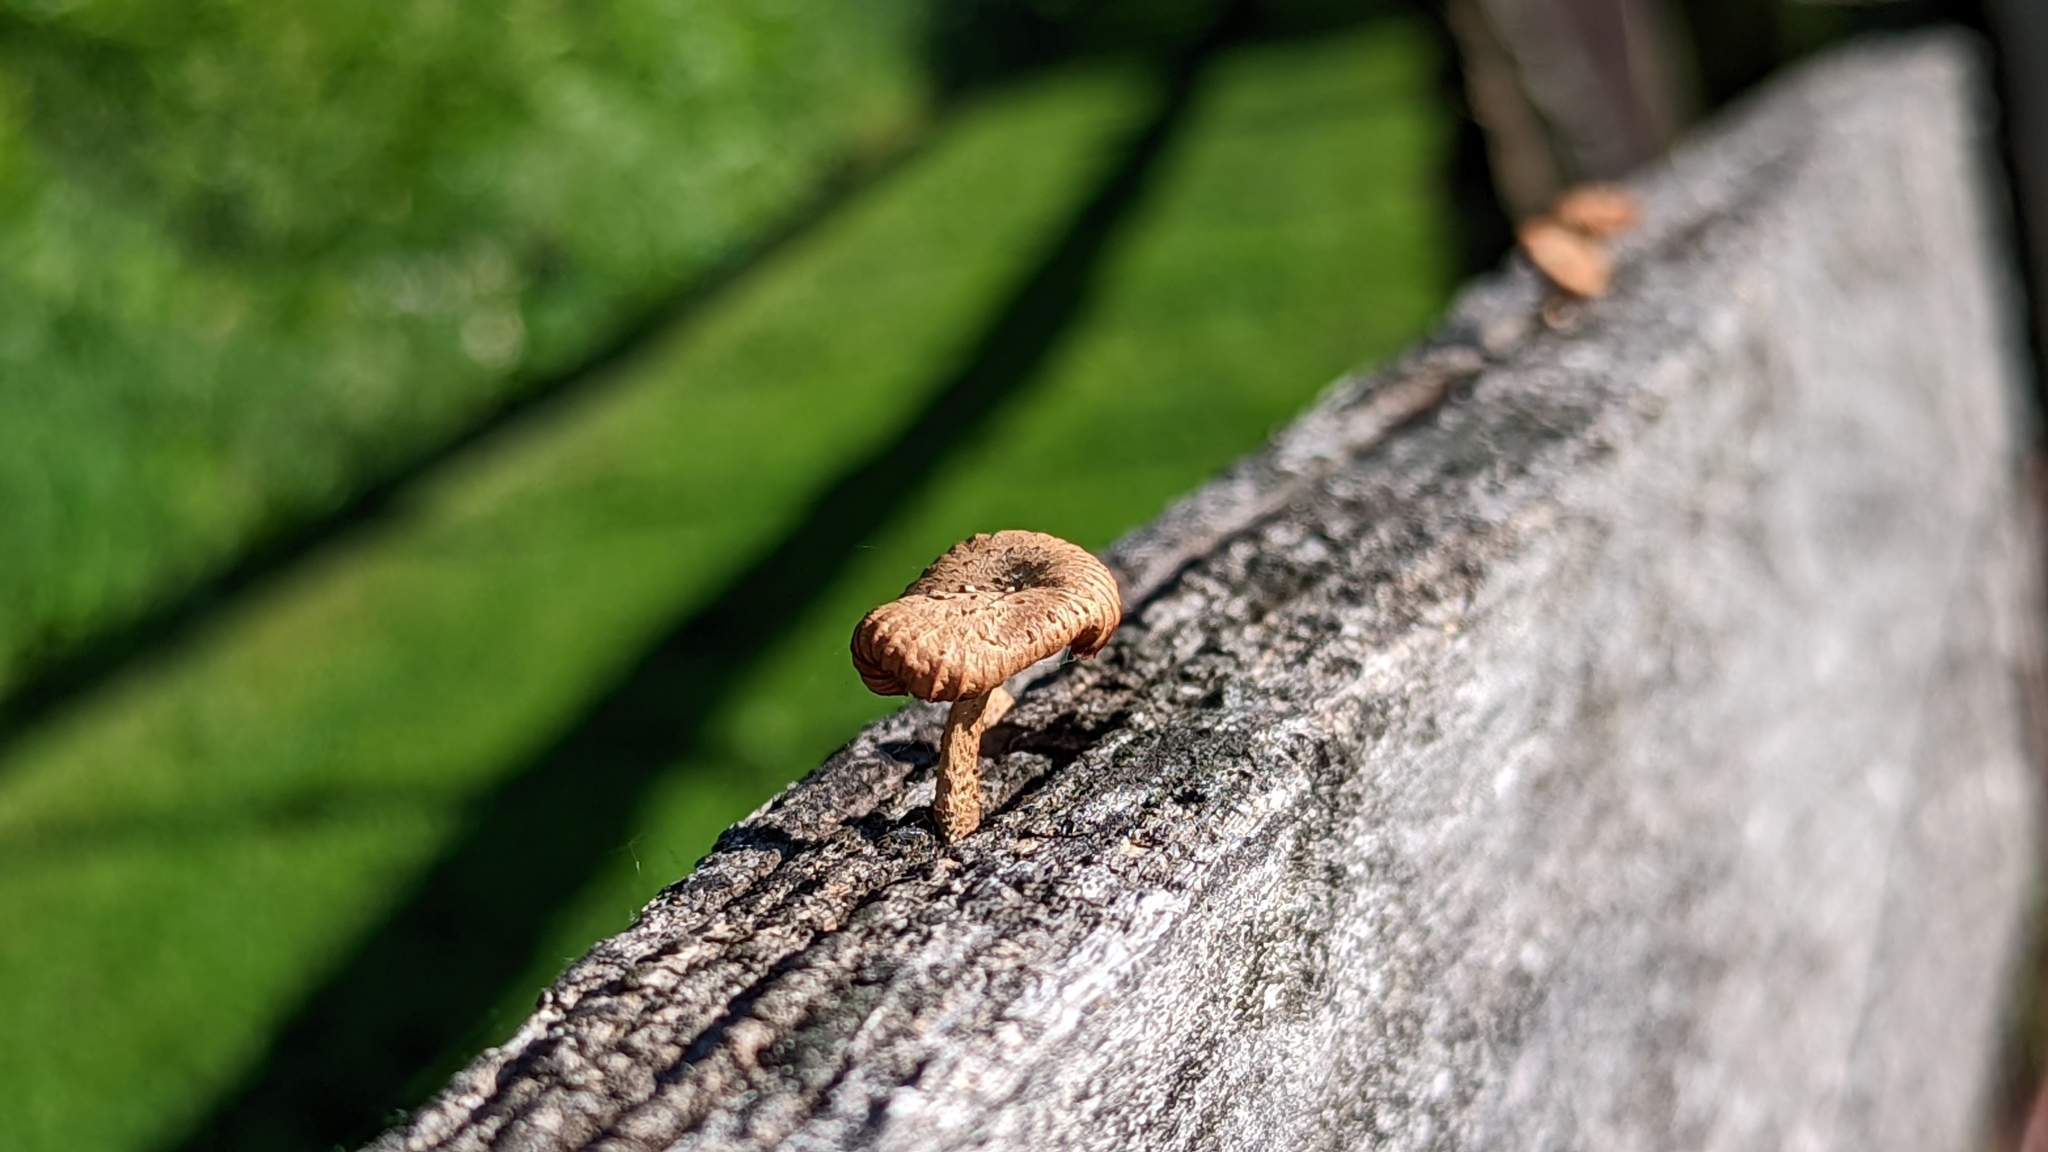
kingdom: Fungi
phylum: Basidiomycota
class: Agaricomycetes
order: Gloeophyllales
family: Gloeophyllaceae
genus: Heliocybe
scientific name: Heliocybe sulcata
